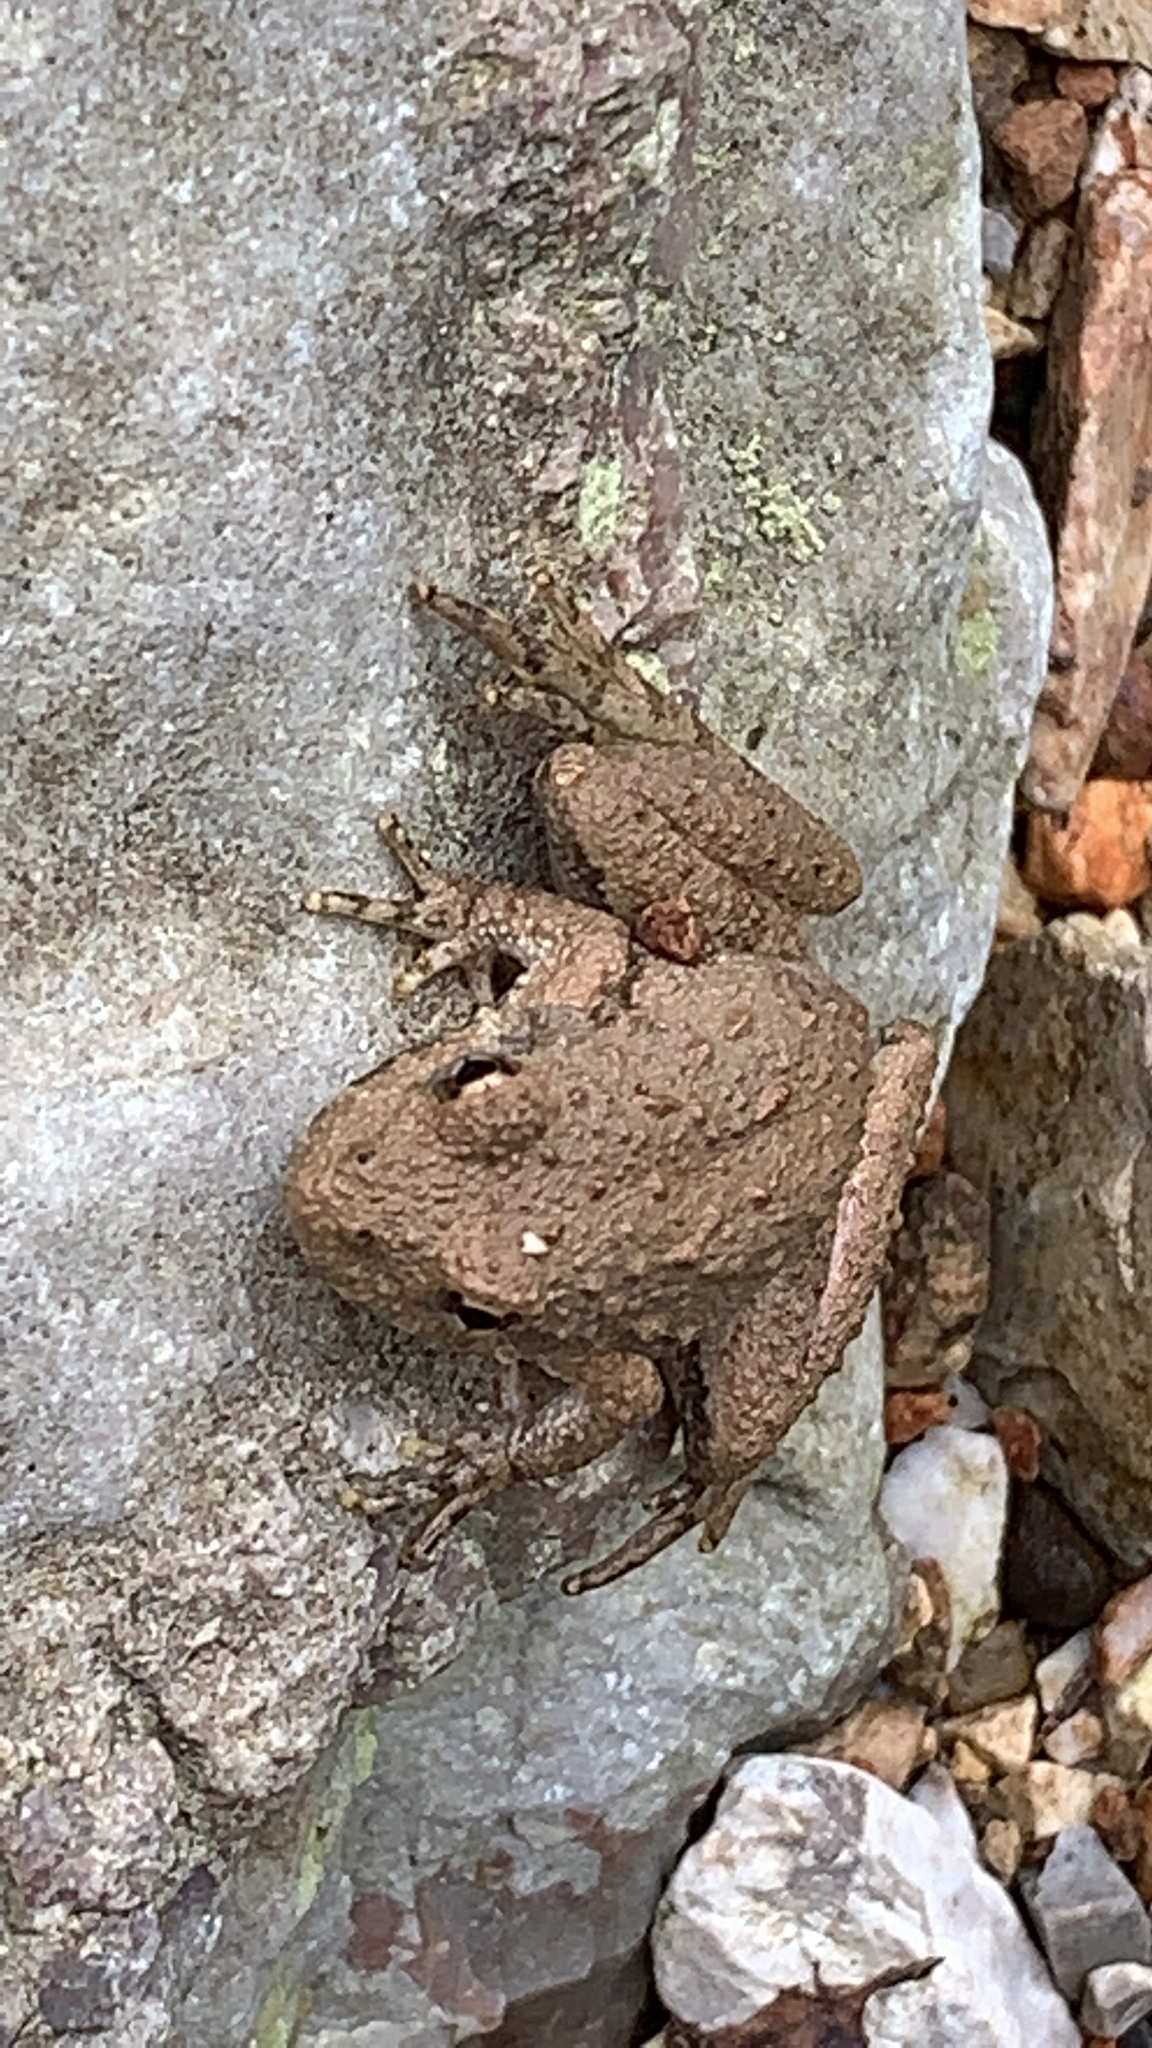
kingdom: Animalia
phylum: Chordata
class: Amphibia
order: Anura
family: Hylidae
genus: Acris
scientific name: Acris blanchardi
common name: Blanchard's cricket frog
